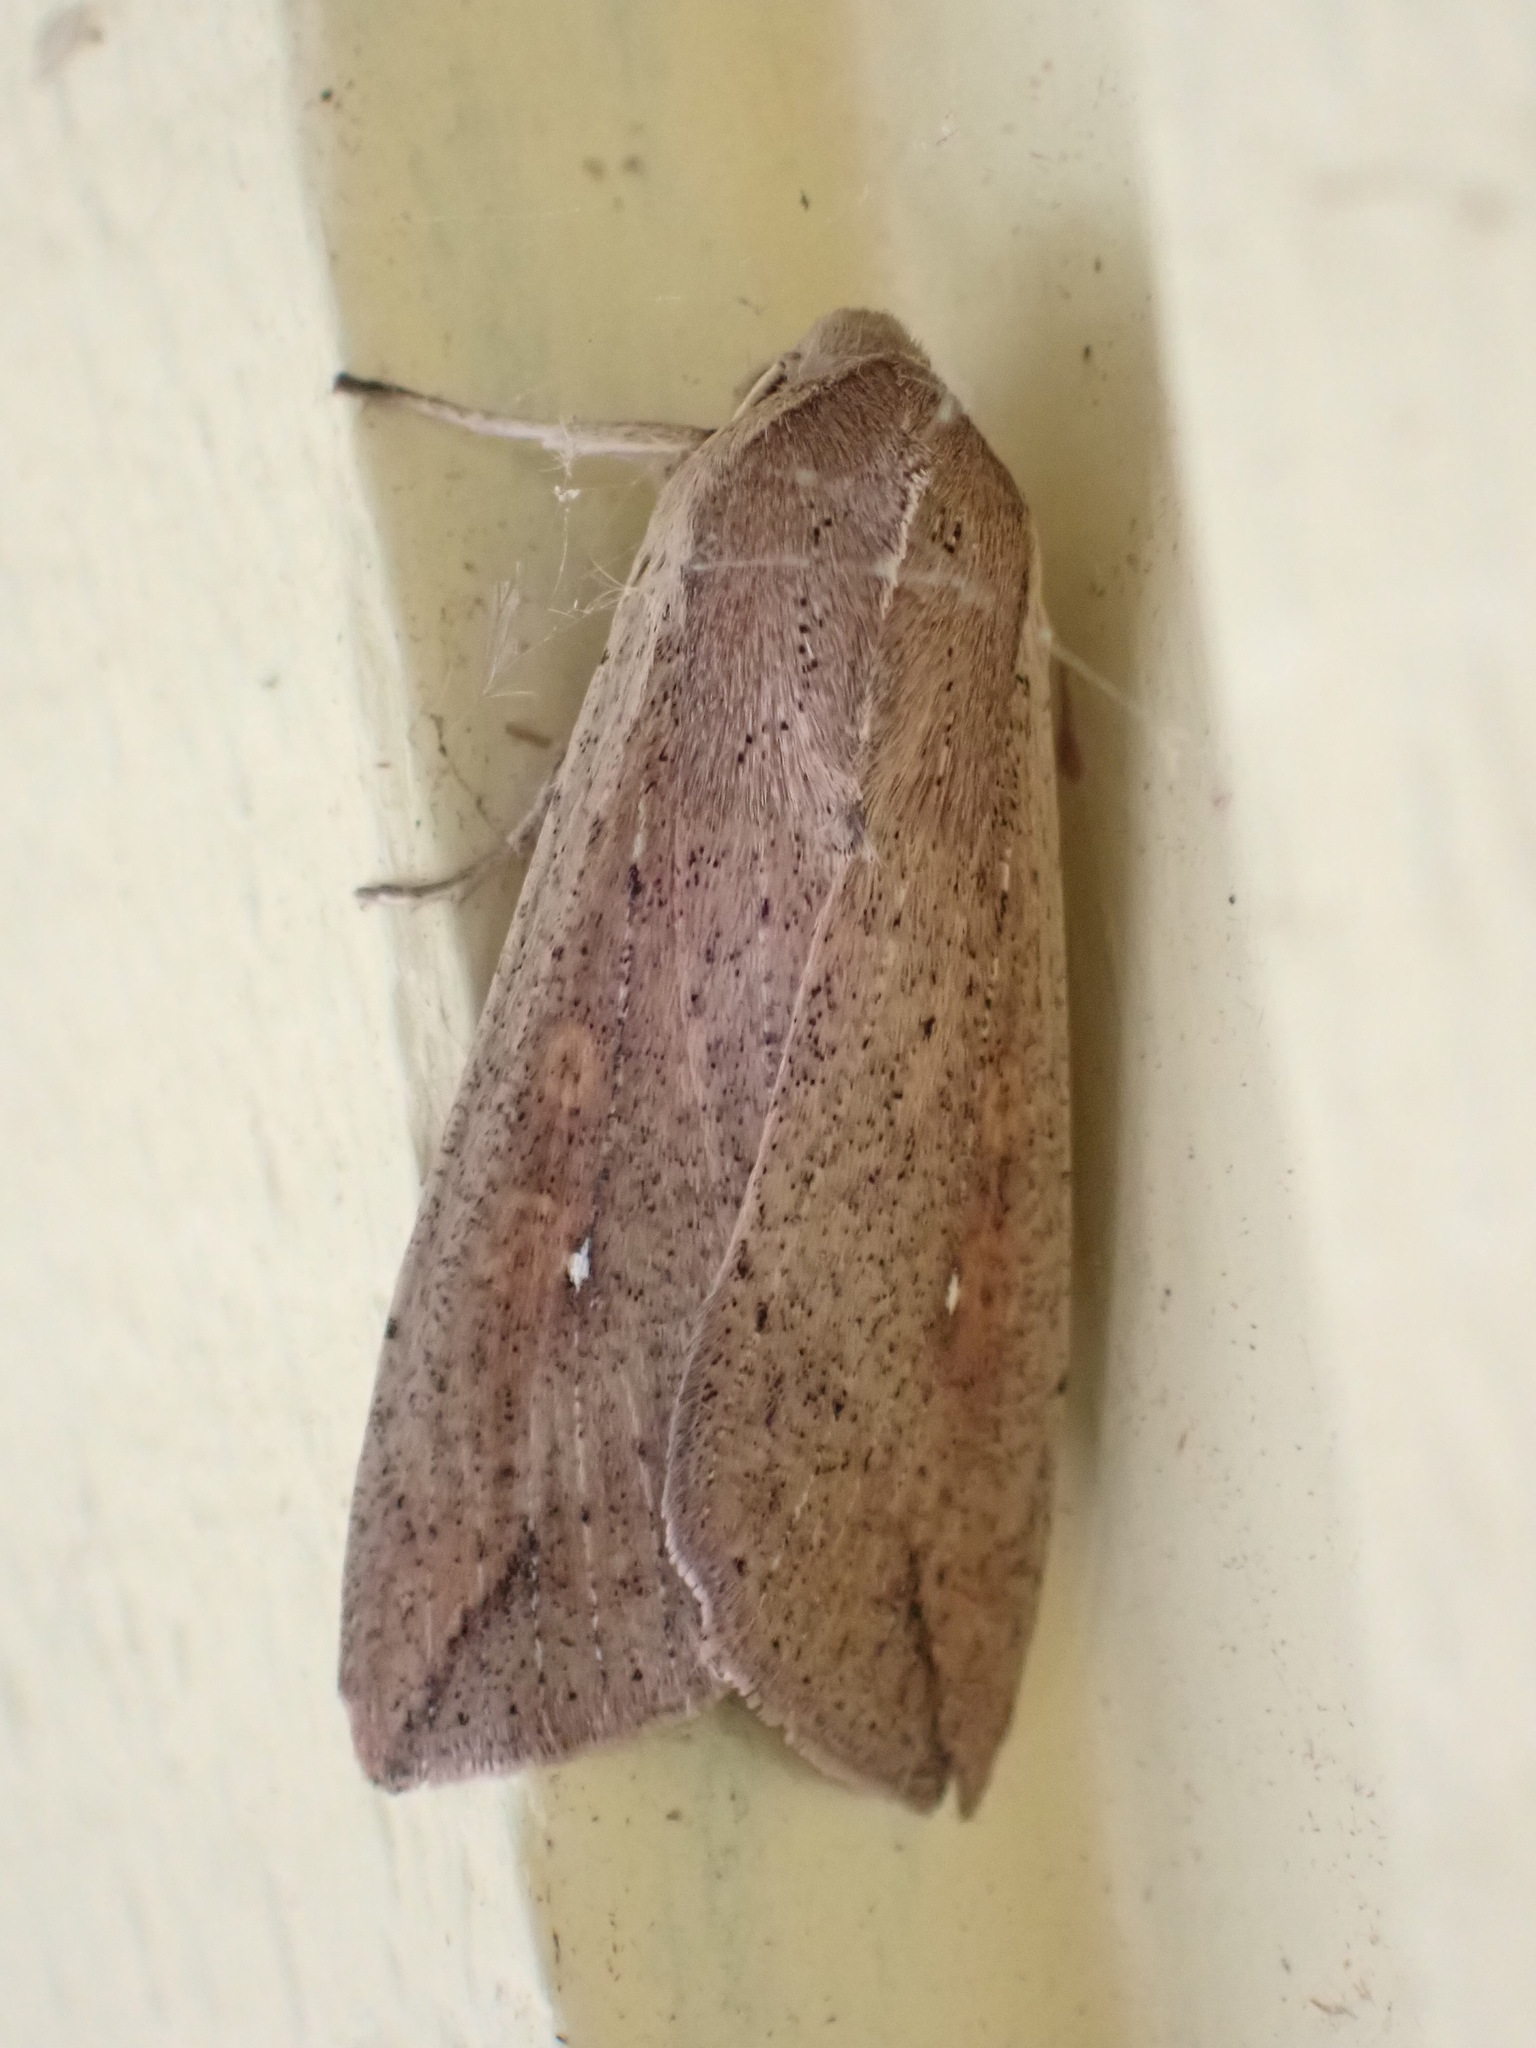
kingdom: Animalia
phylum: Arthropoda
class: Insecta
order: Lepidoptera
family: Noctuidae
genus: Mythimna
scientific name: Mythimna unipuncta
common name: White-speck
